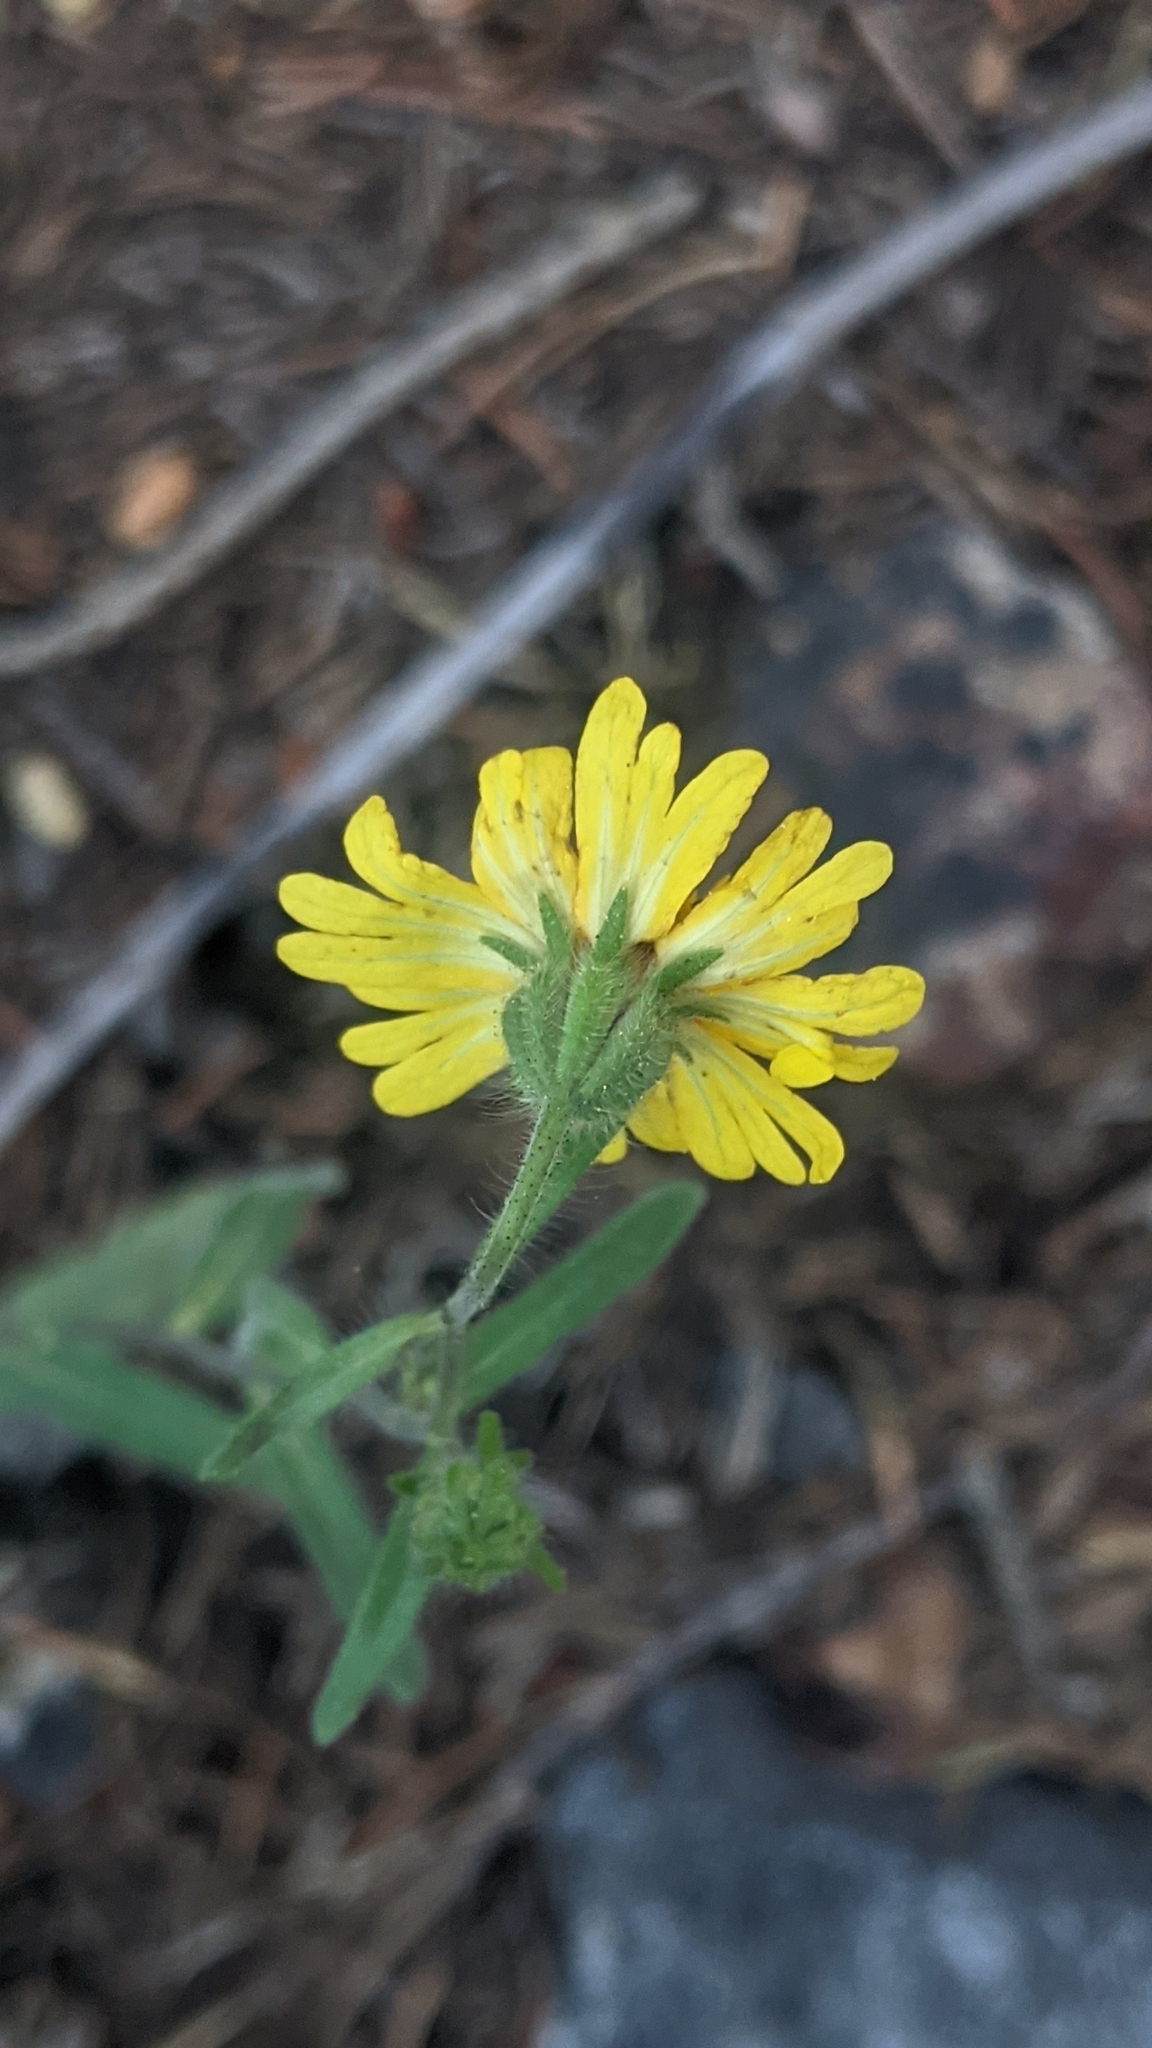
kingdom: Plantae
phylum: Tracheophyta
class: Magnoliopsida
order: Asterales
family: Asteraceae
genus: Madia
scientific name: Madia elegans
